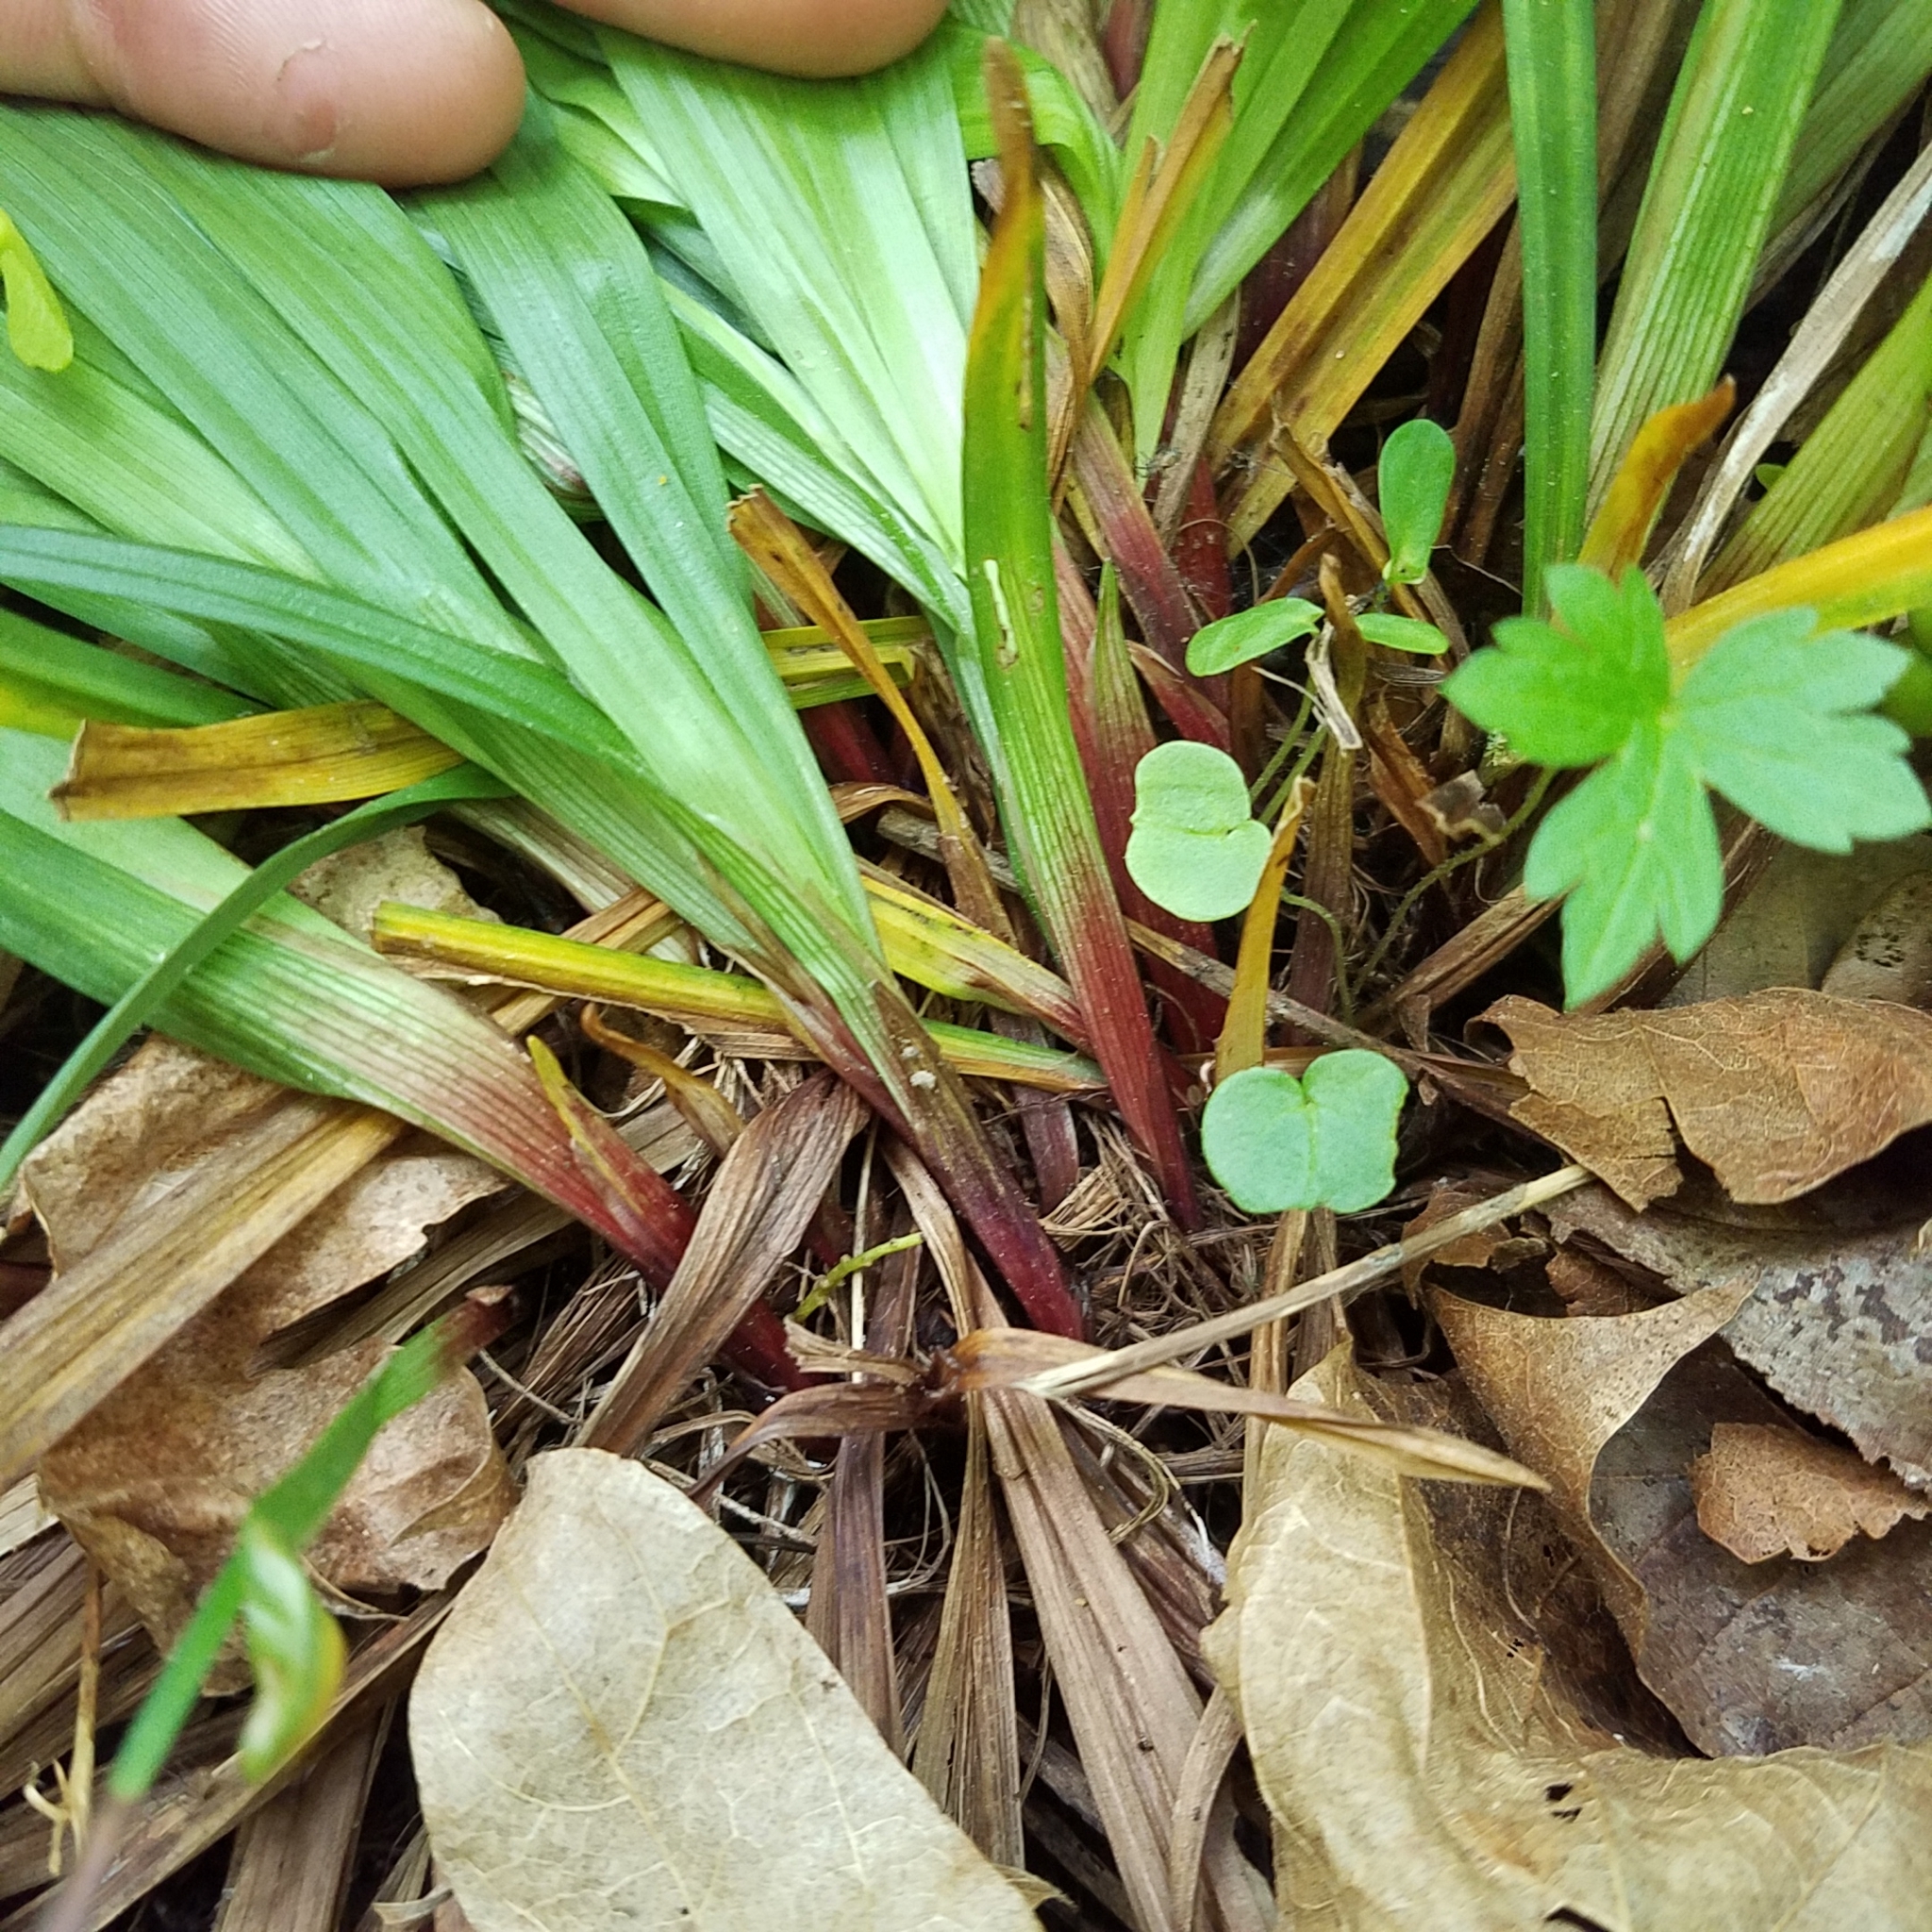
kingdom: Plantae
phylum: Tracheophyta
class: Liliopsida
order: Poales
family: Cyperaceae
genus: Carex
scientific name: Carex careyana
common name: Carey's sedge
